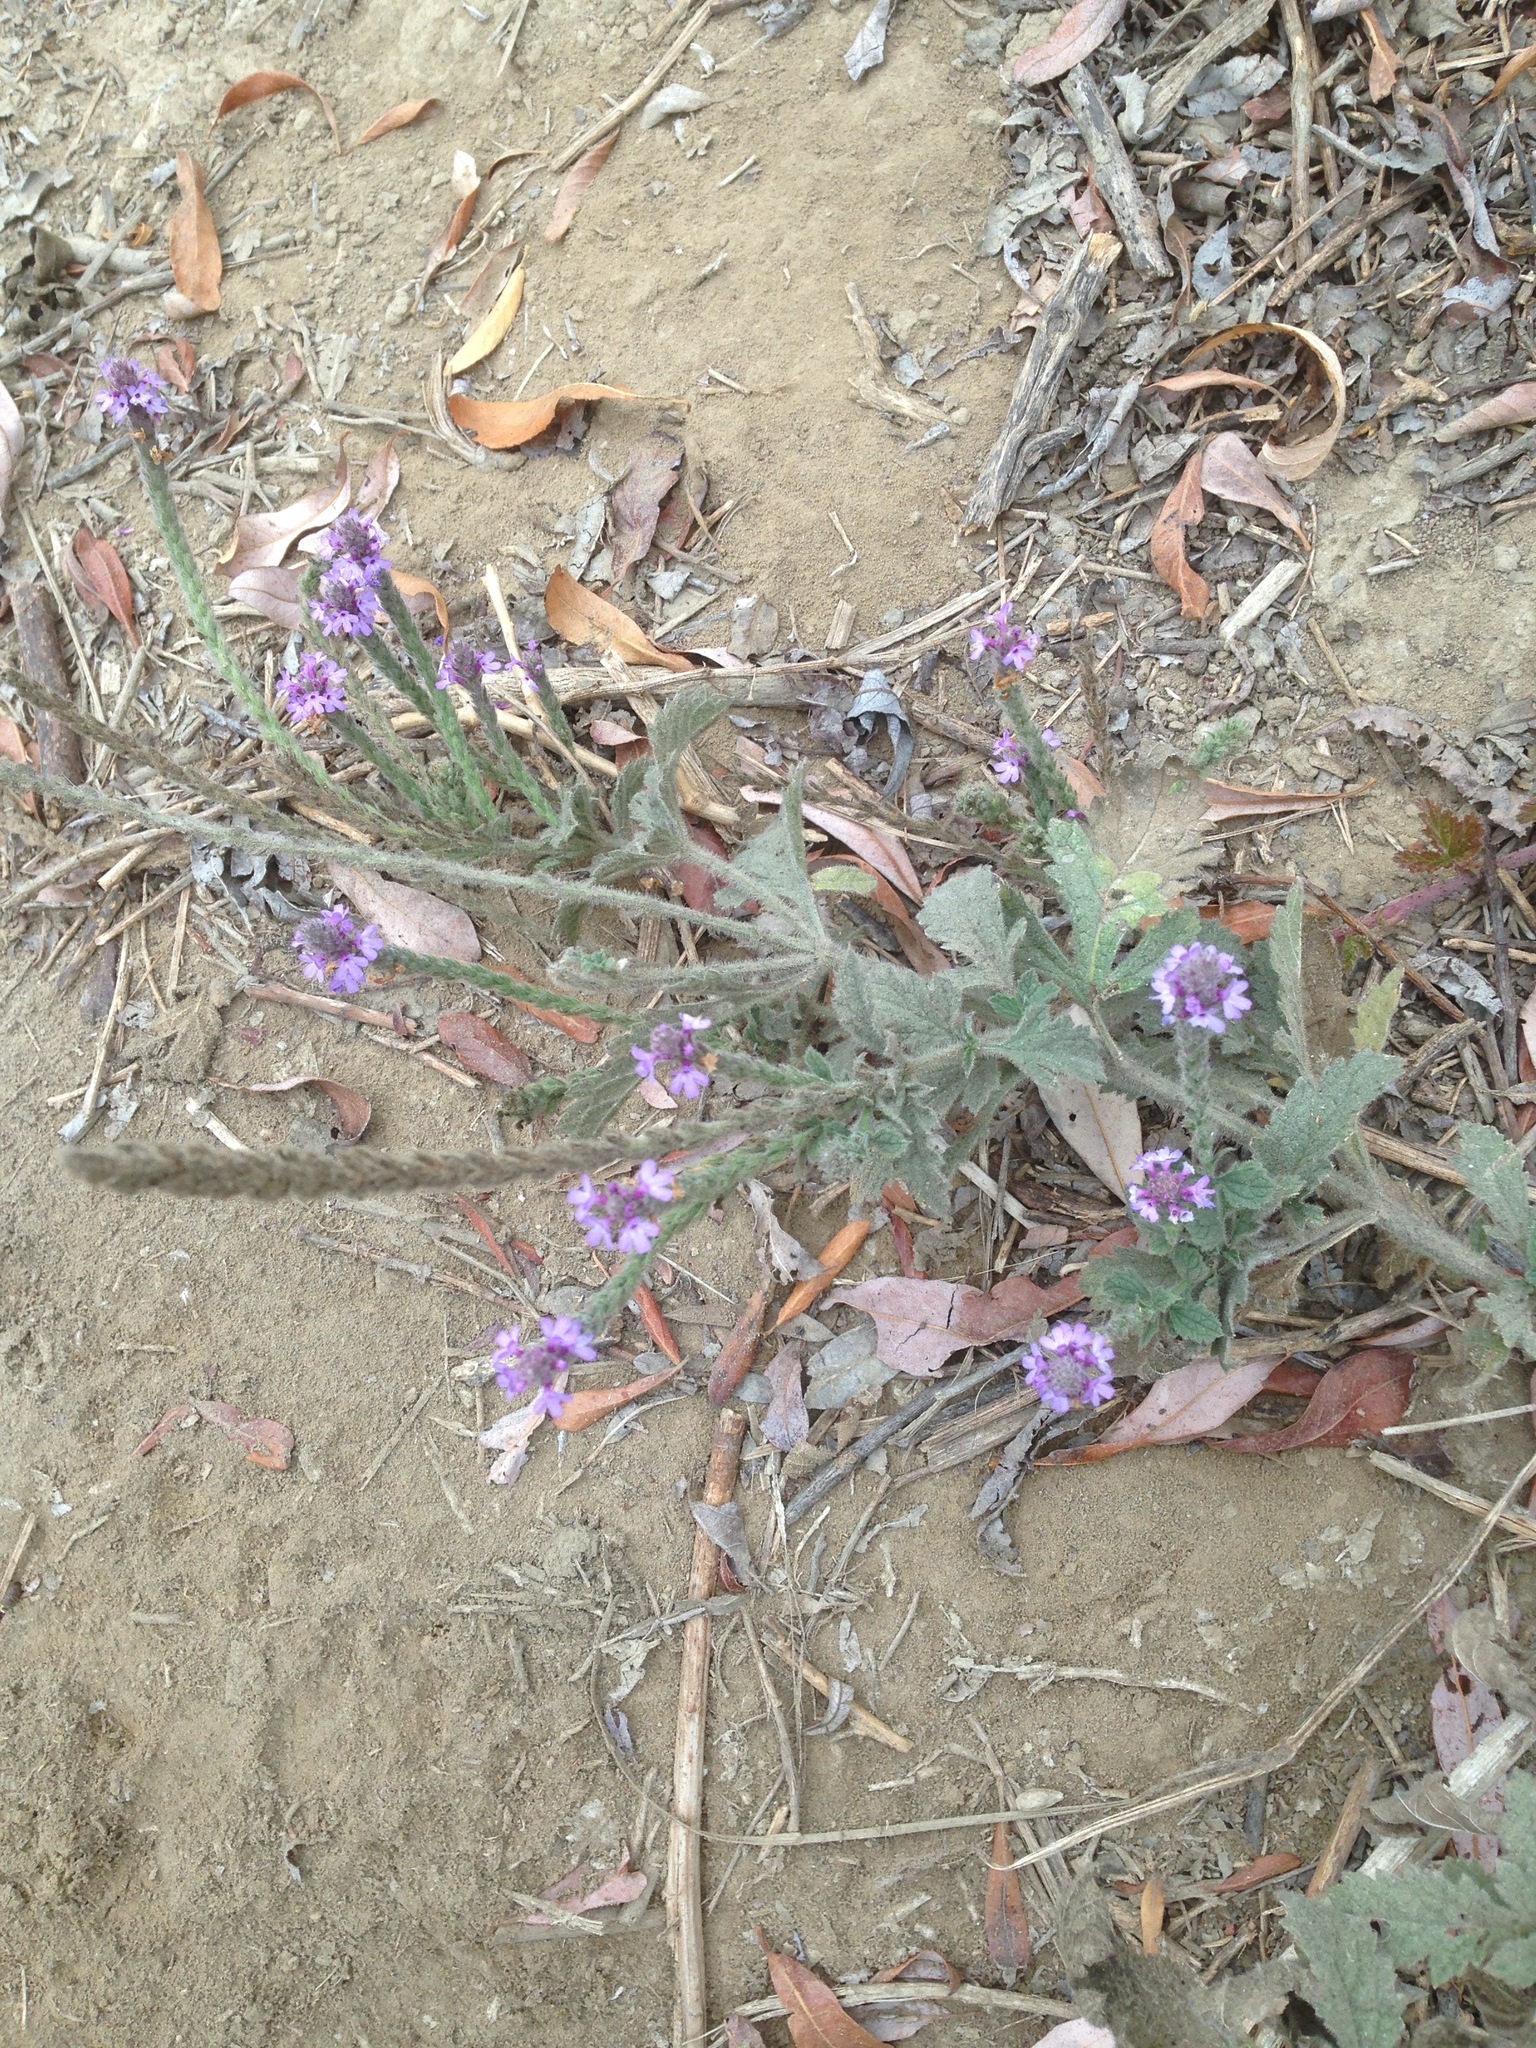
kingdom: Plantae
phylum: Tracheophyta
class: Magnoliopsida
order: Lamiales
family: Verbenaceae
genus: Verbena
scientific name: Verbena lasiostachys
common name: Vervain
